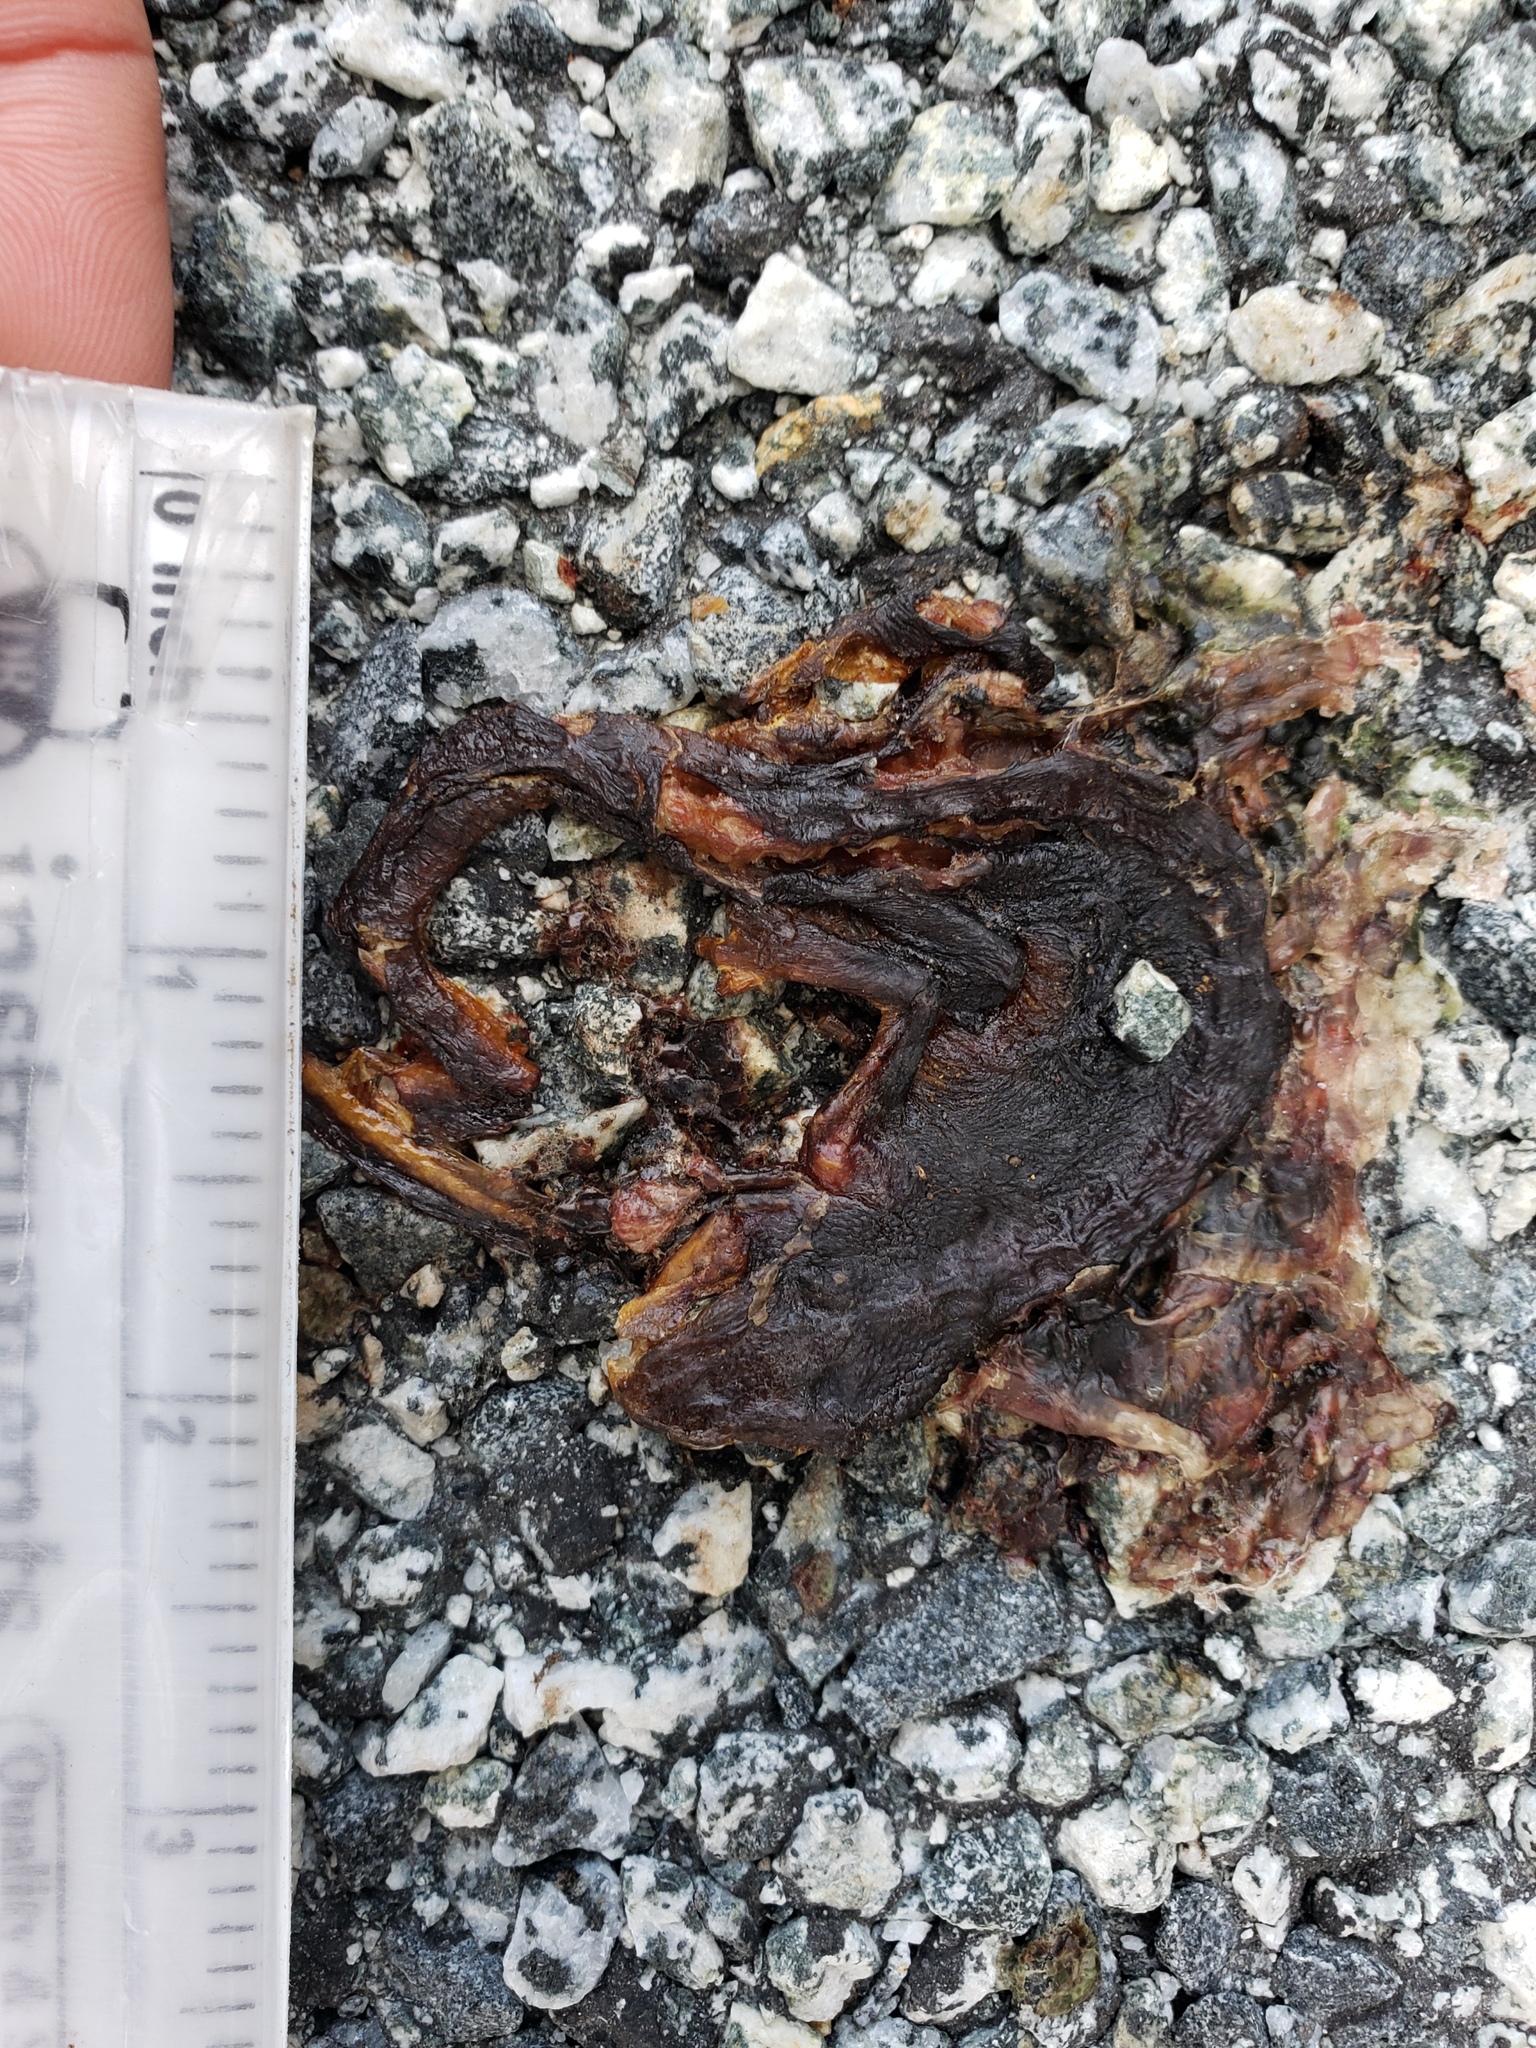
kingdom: Animalia
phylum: Chordata
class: Amphibia
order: Caudata
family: Salamandridae
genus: Taricha
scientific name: Taricha
